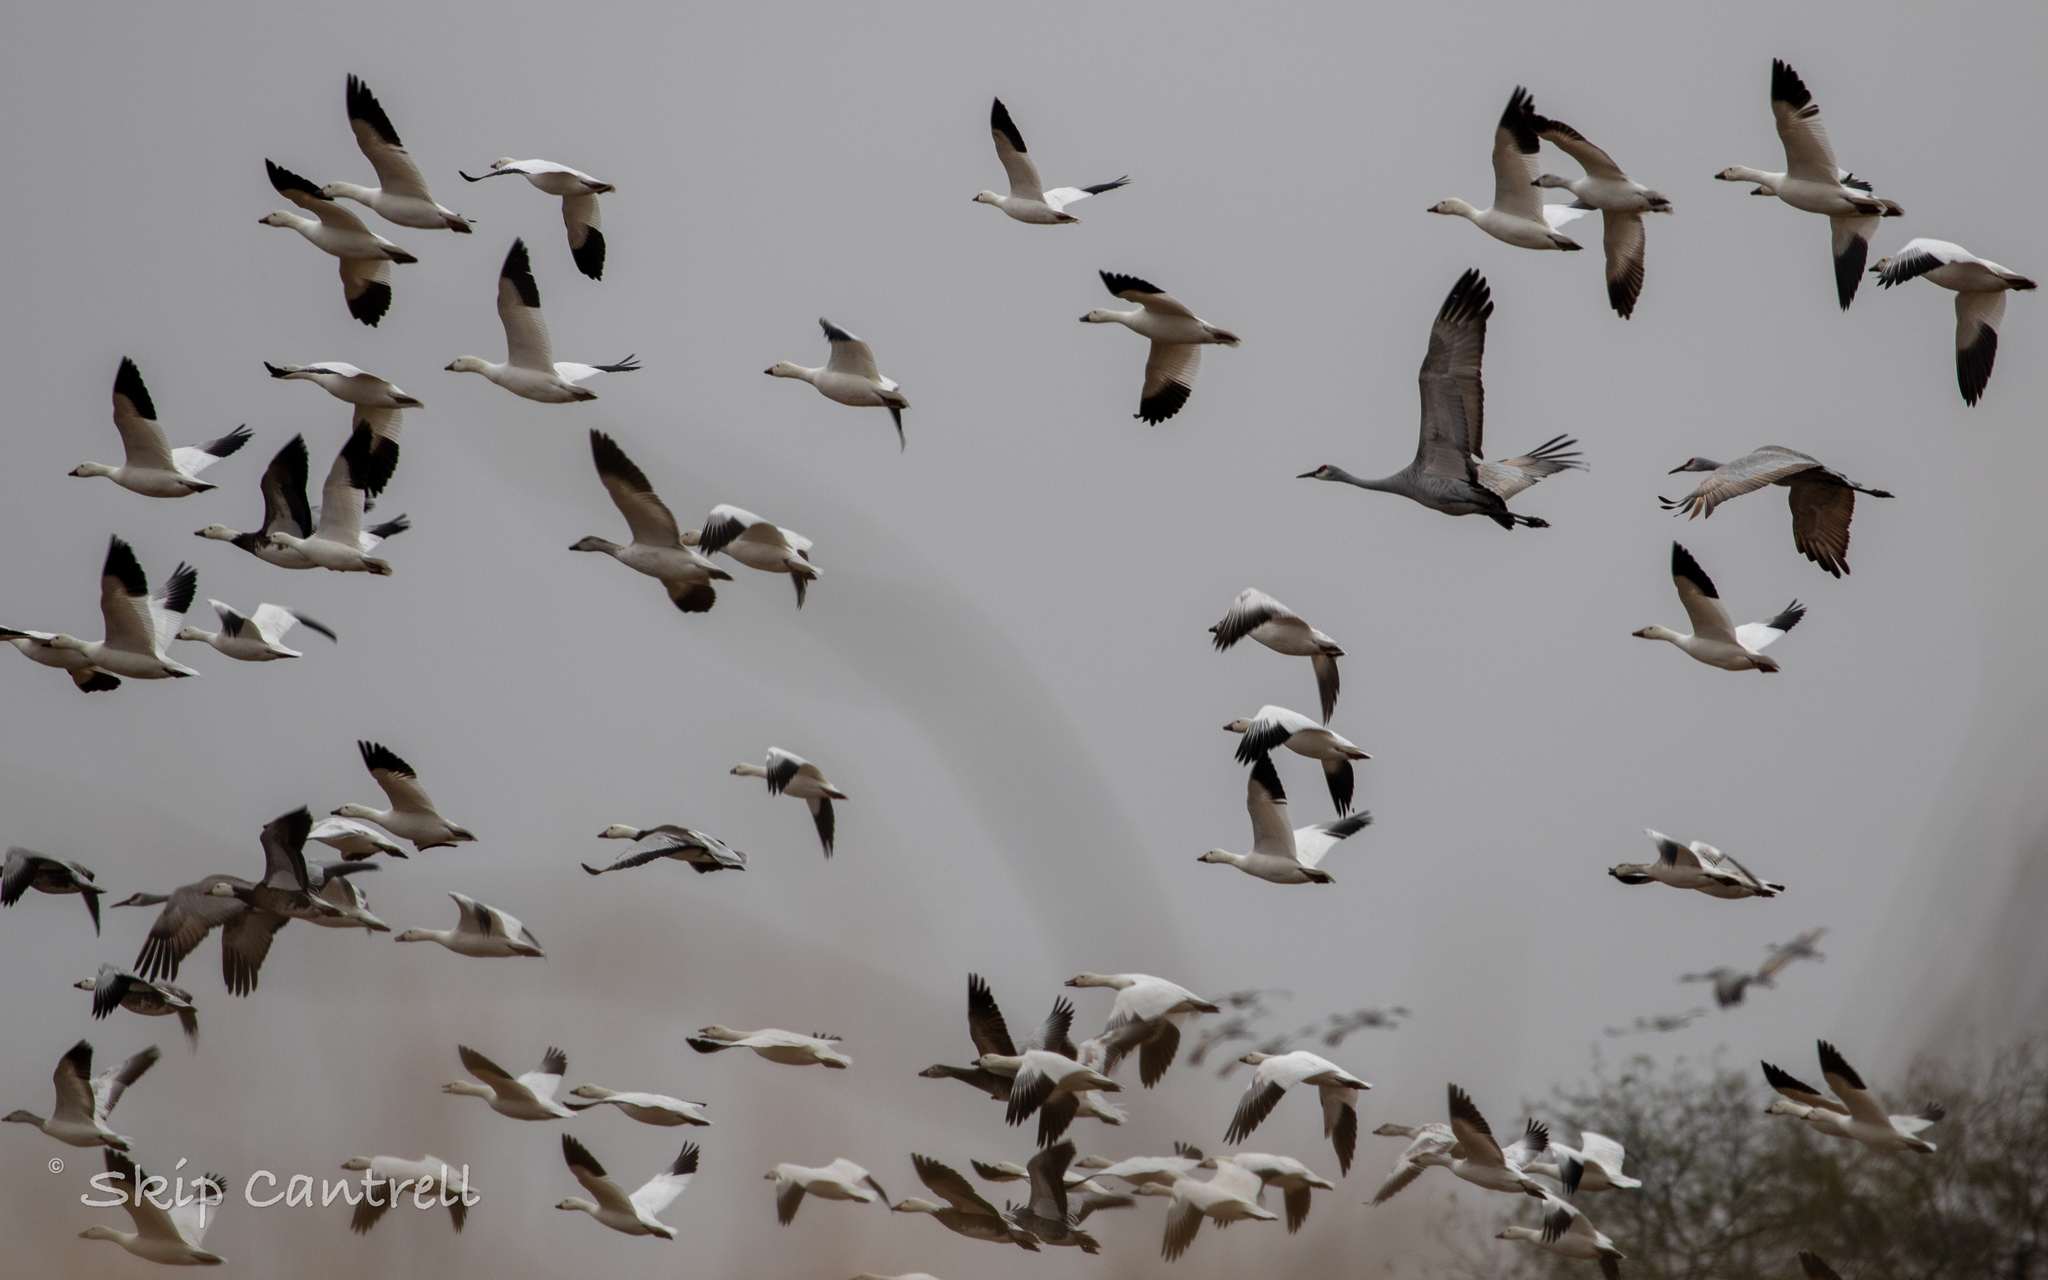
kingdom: Animalia
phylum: Chordata
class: Aves
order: Anseriformes
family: Anatidae
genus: Anser
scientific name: Anser caerulescens
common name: Snow goose
